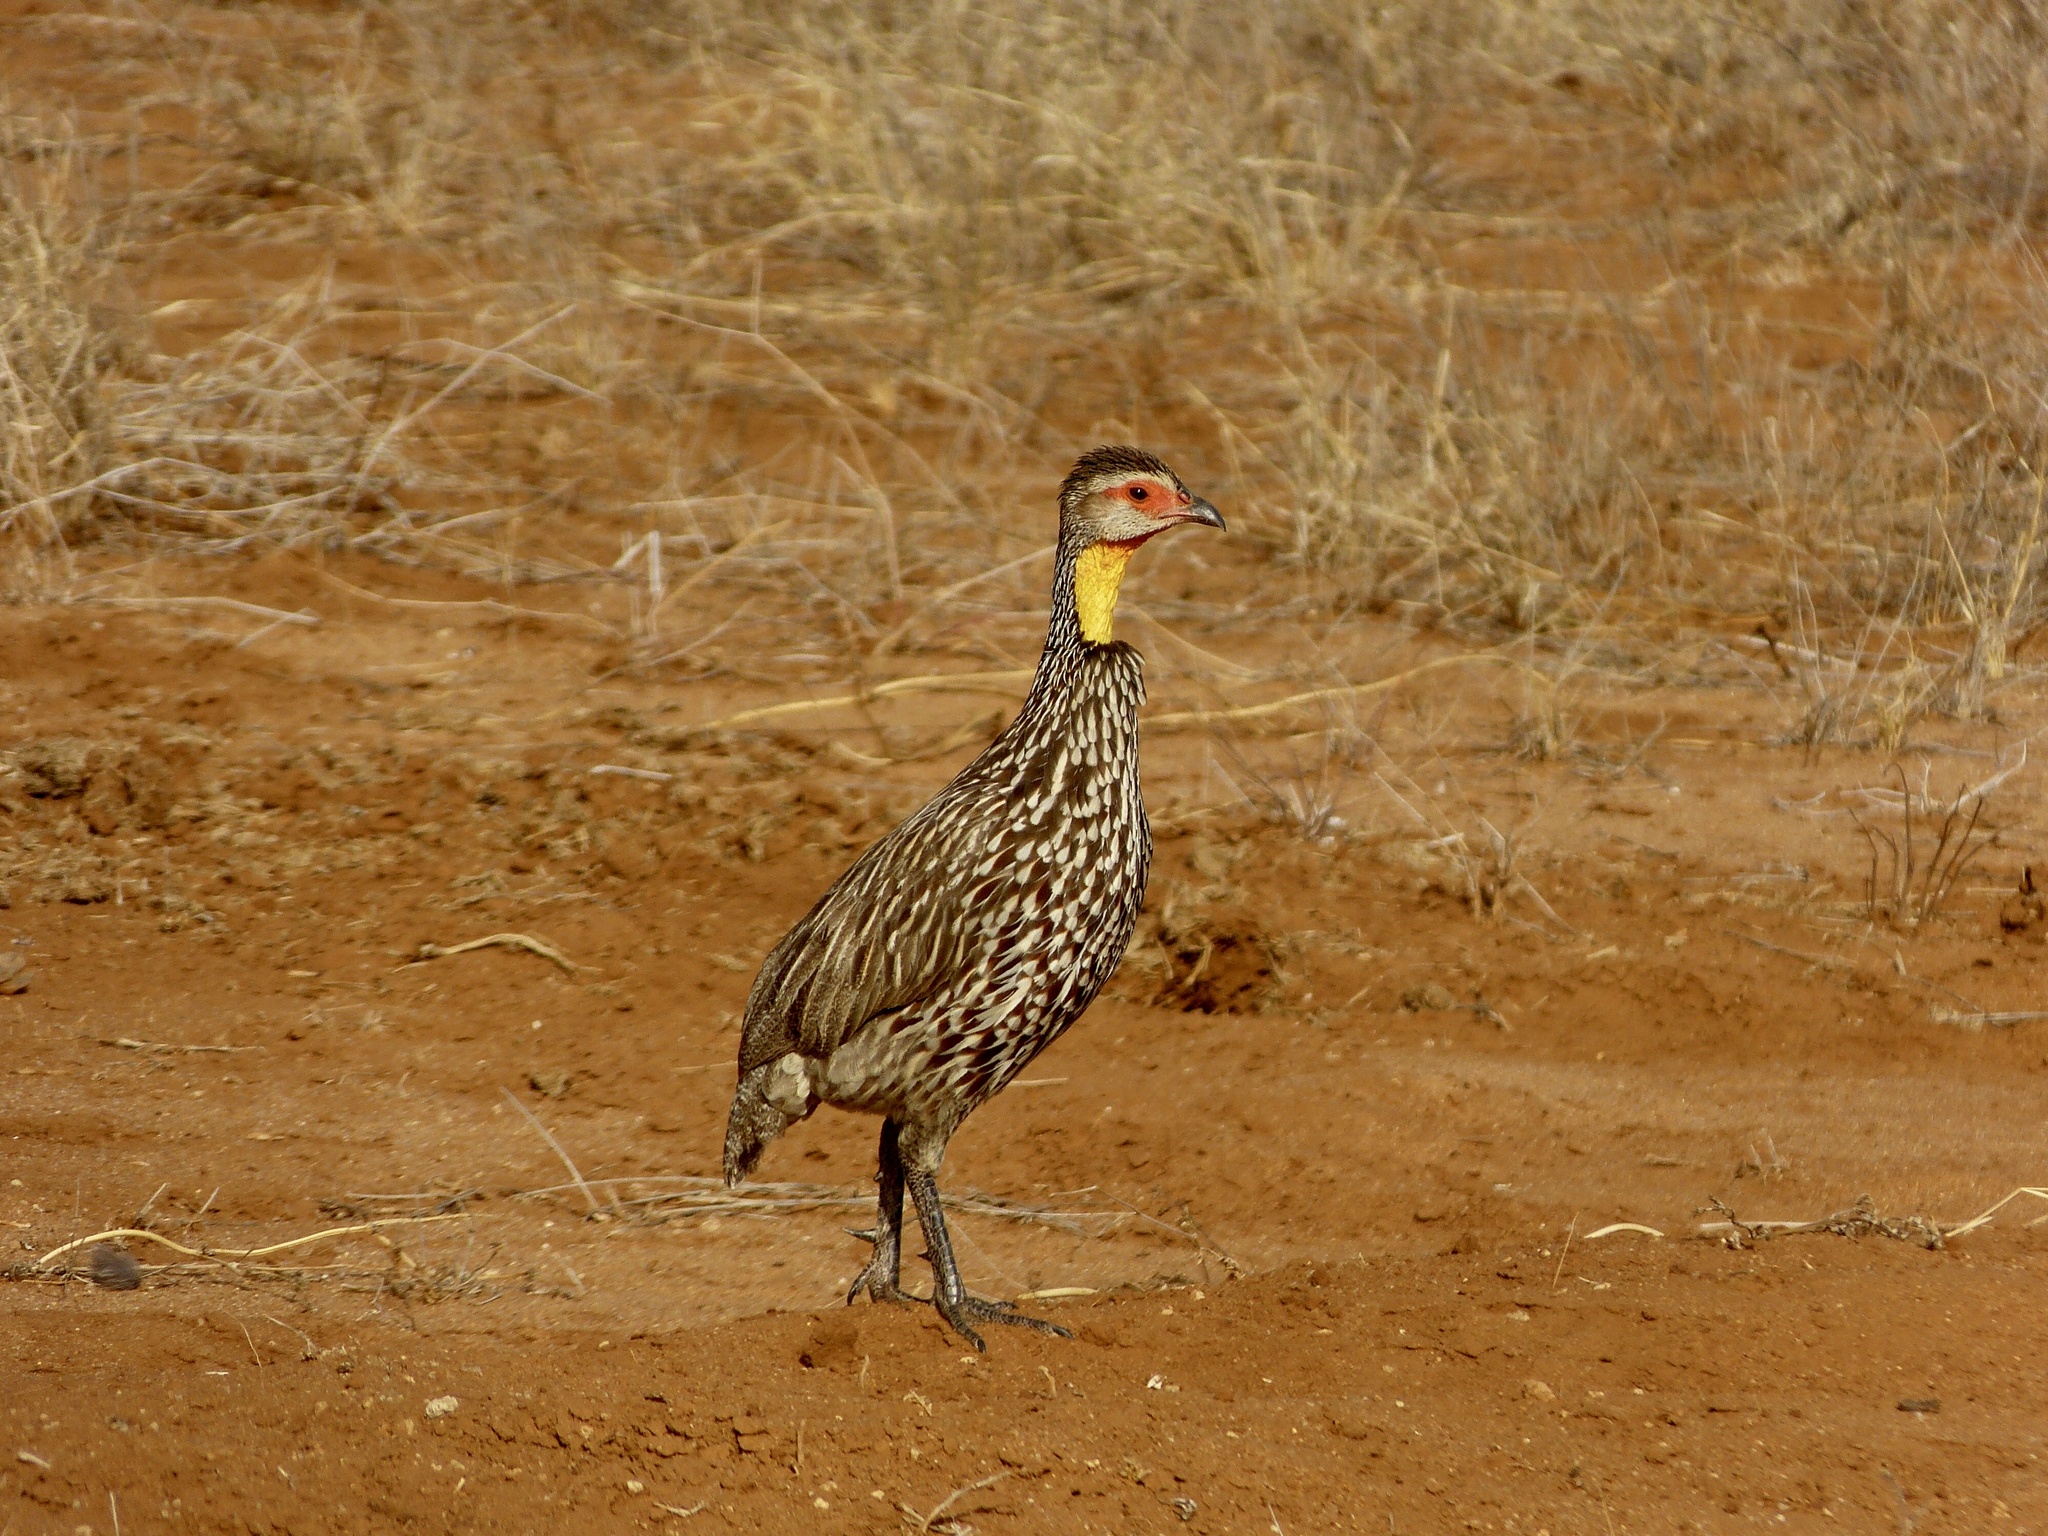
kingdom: Animalia
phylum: Chordata
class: Aves
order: Galliformes
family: Phasianidae
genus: Pternistis
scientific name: Pternistis leucoscepus
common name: Yellow-necked spurfowl
